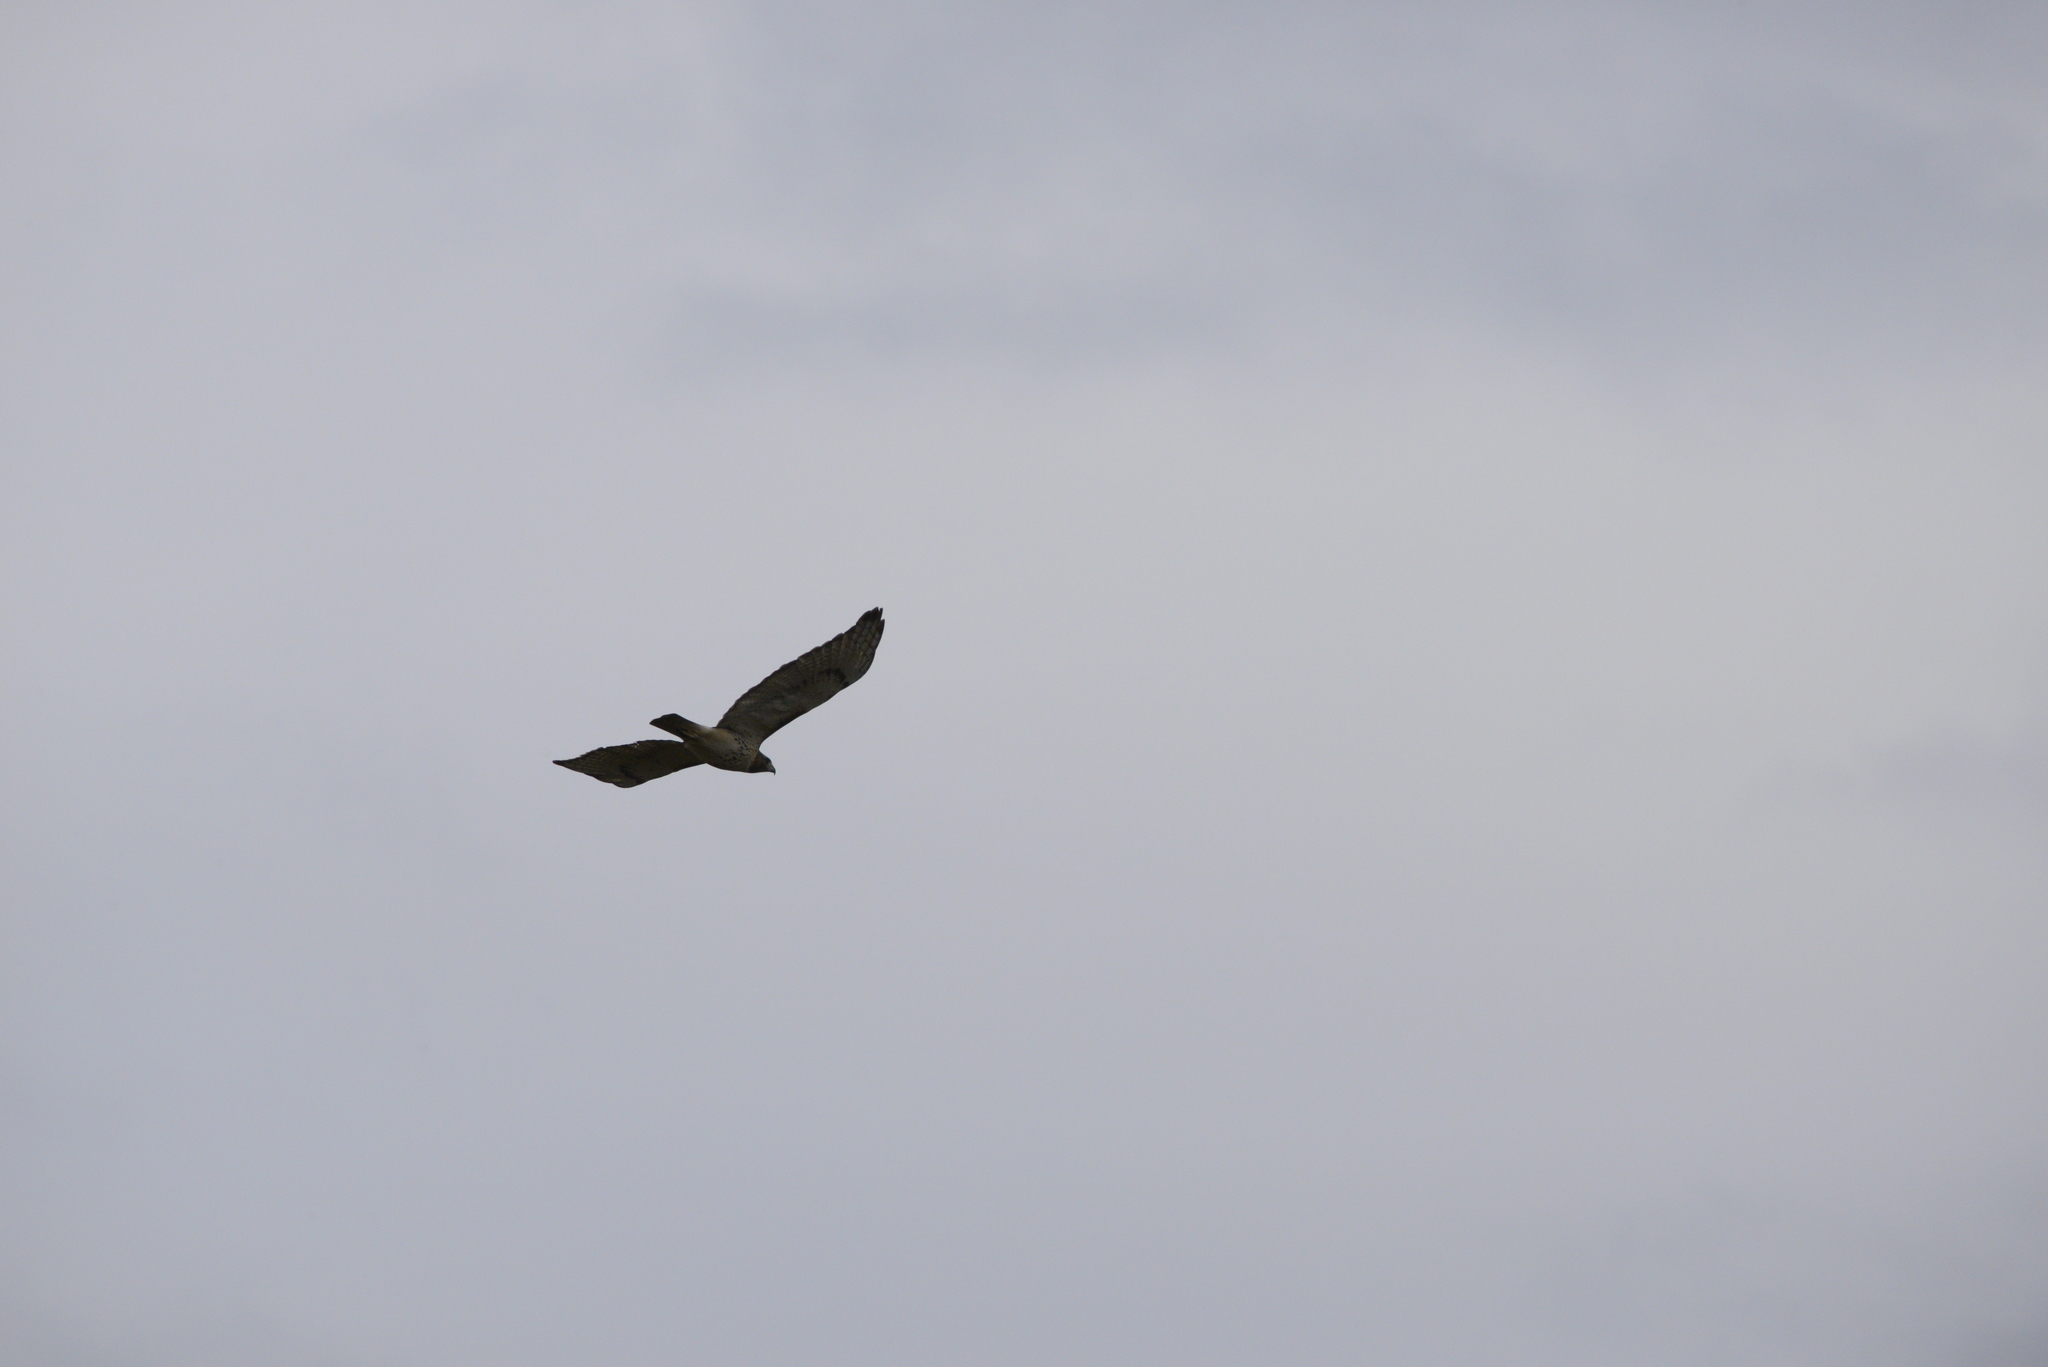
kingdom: Animalia
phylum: Chordata
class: Aves
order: Accipitriformes
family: Accipitridae
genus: Buteo
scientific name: Buteo jamaicensis
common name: Red-tailed hawk
